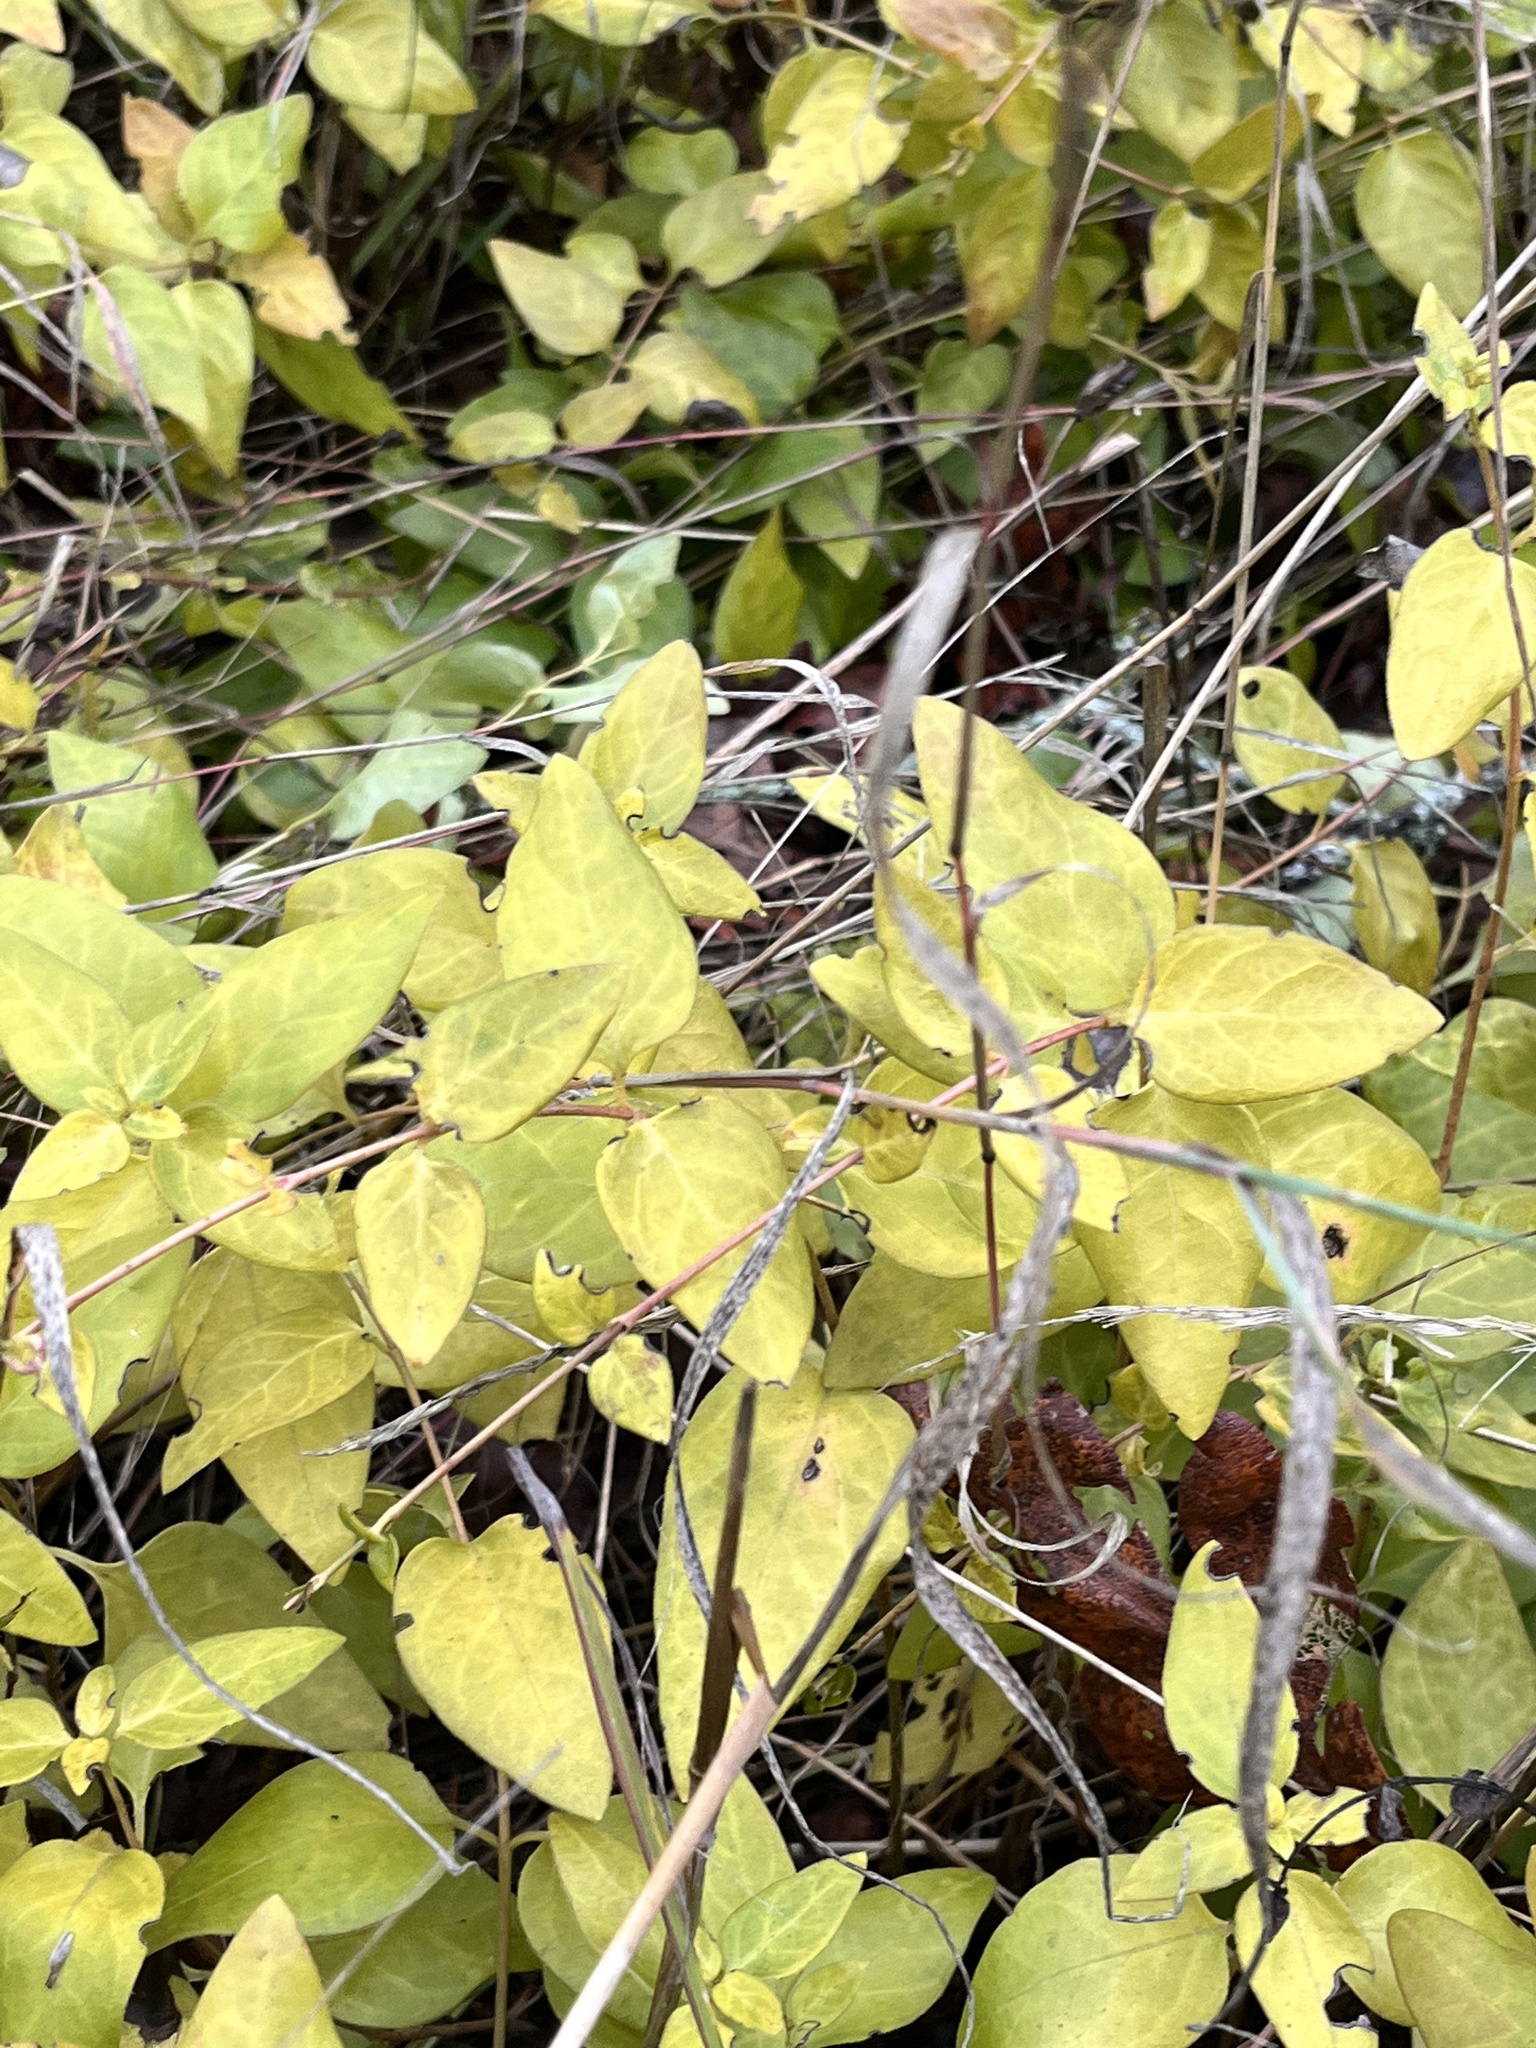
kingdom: Plantae
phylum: Tracheophyta
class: Magnoliopsida
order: Gentianales
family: Apocynaceae
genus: Vinca
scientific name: Vinca major
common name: Greater periwinkle
